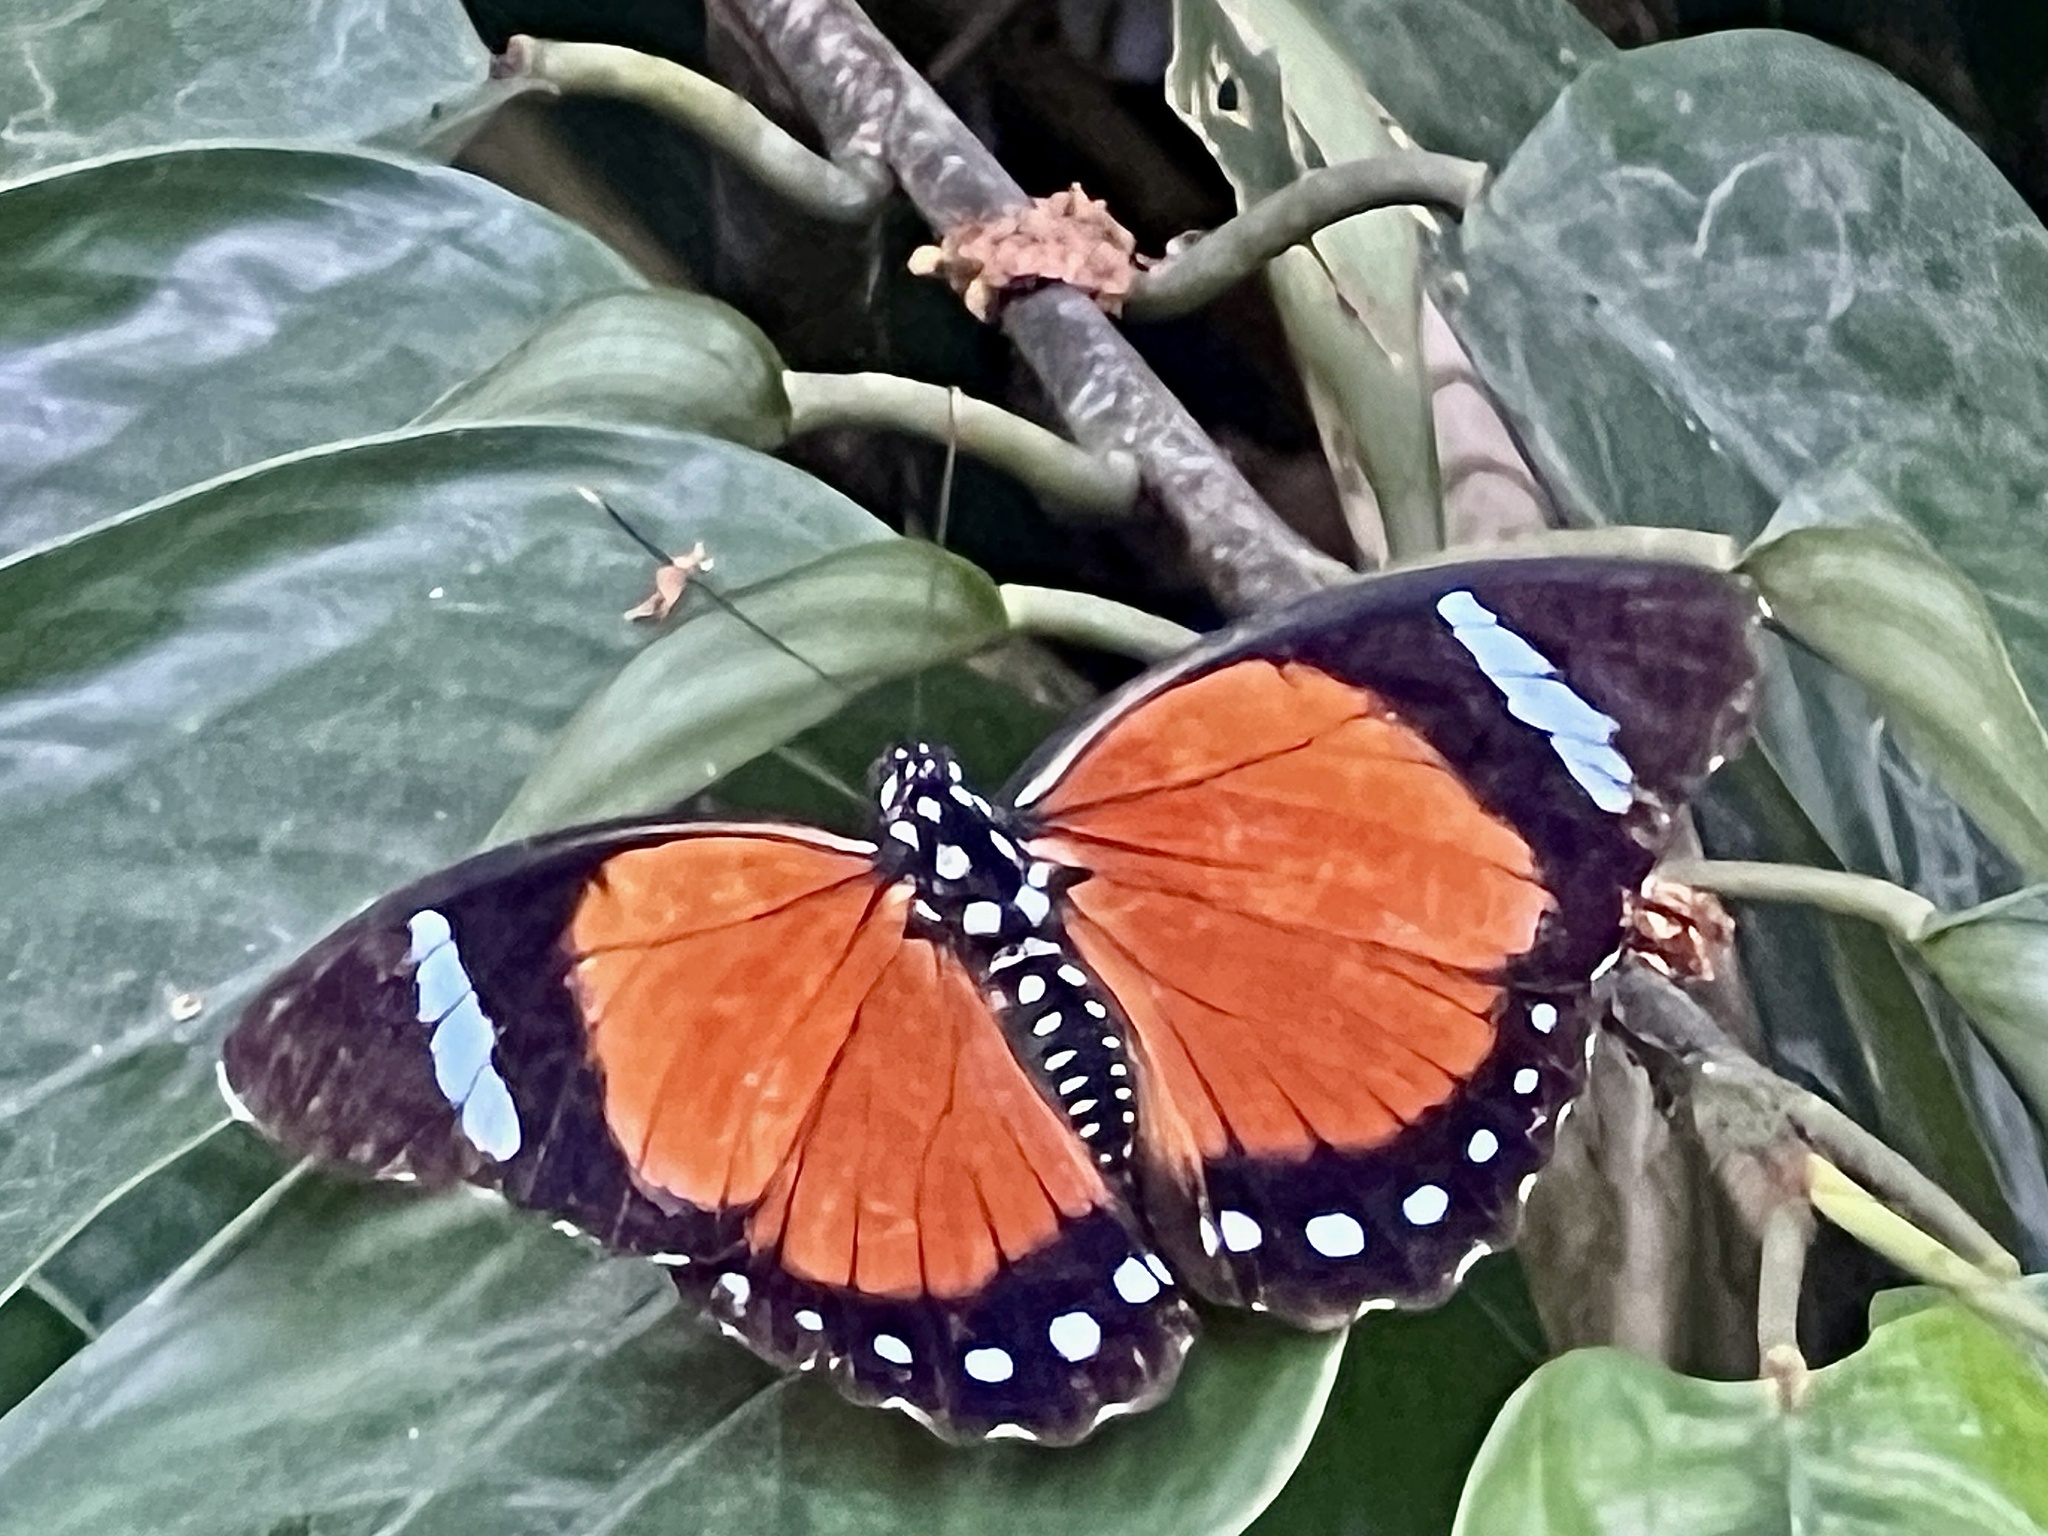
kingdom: Animalia
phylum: Arthropoda
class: Insecta
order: Lepidoptera
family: Nymphalidae
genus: Euphaedra
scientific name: Euphaedra eleus
